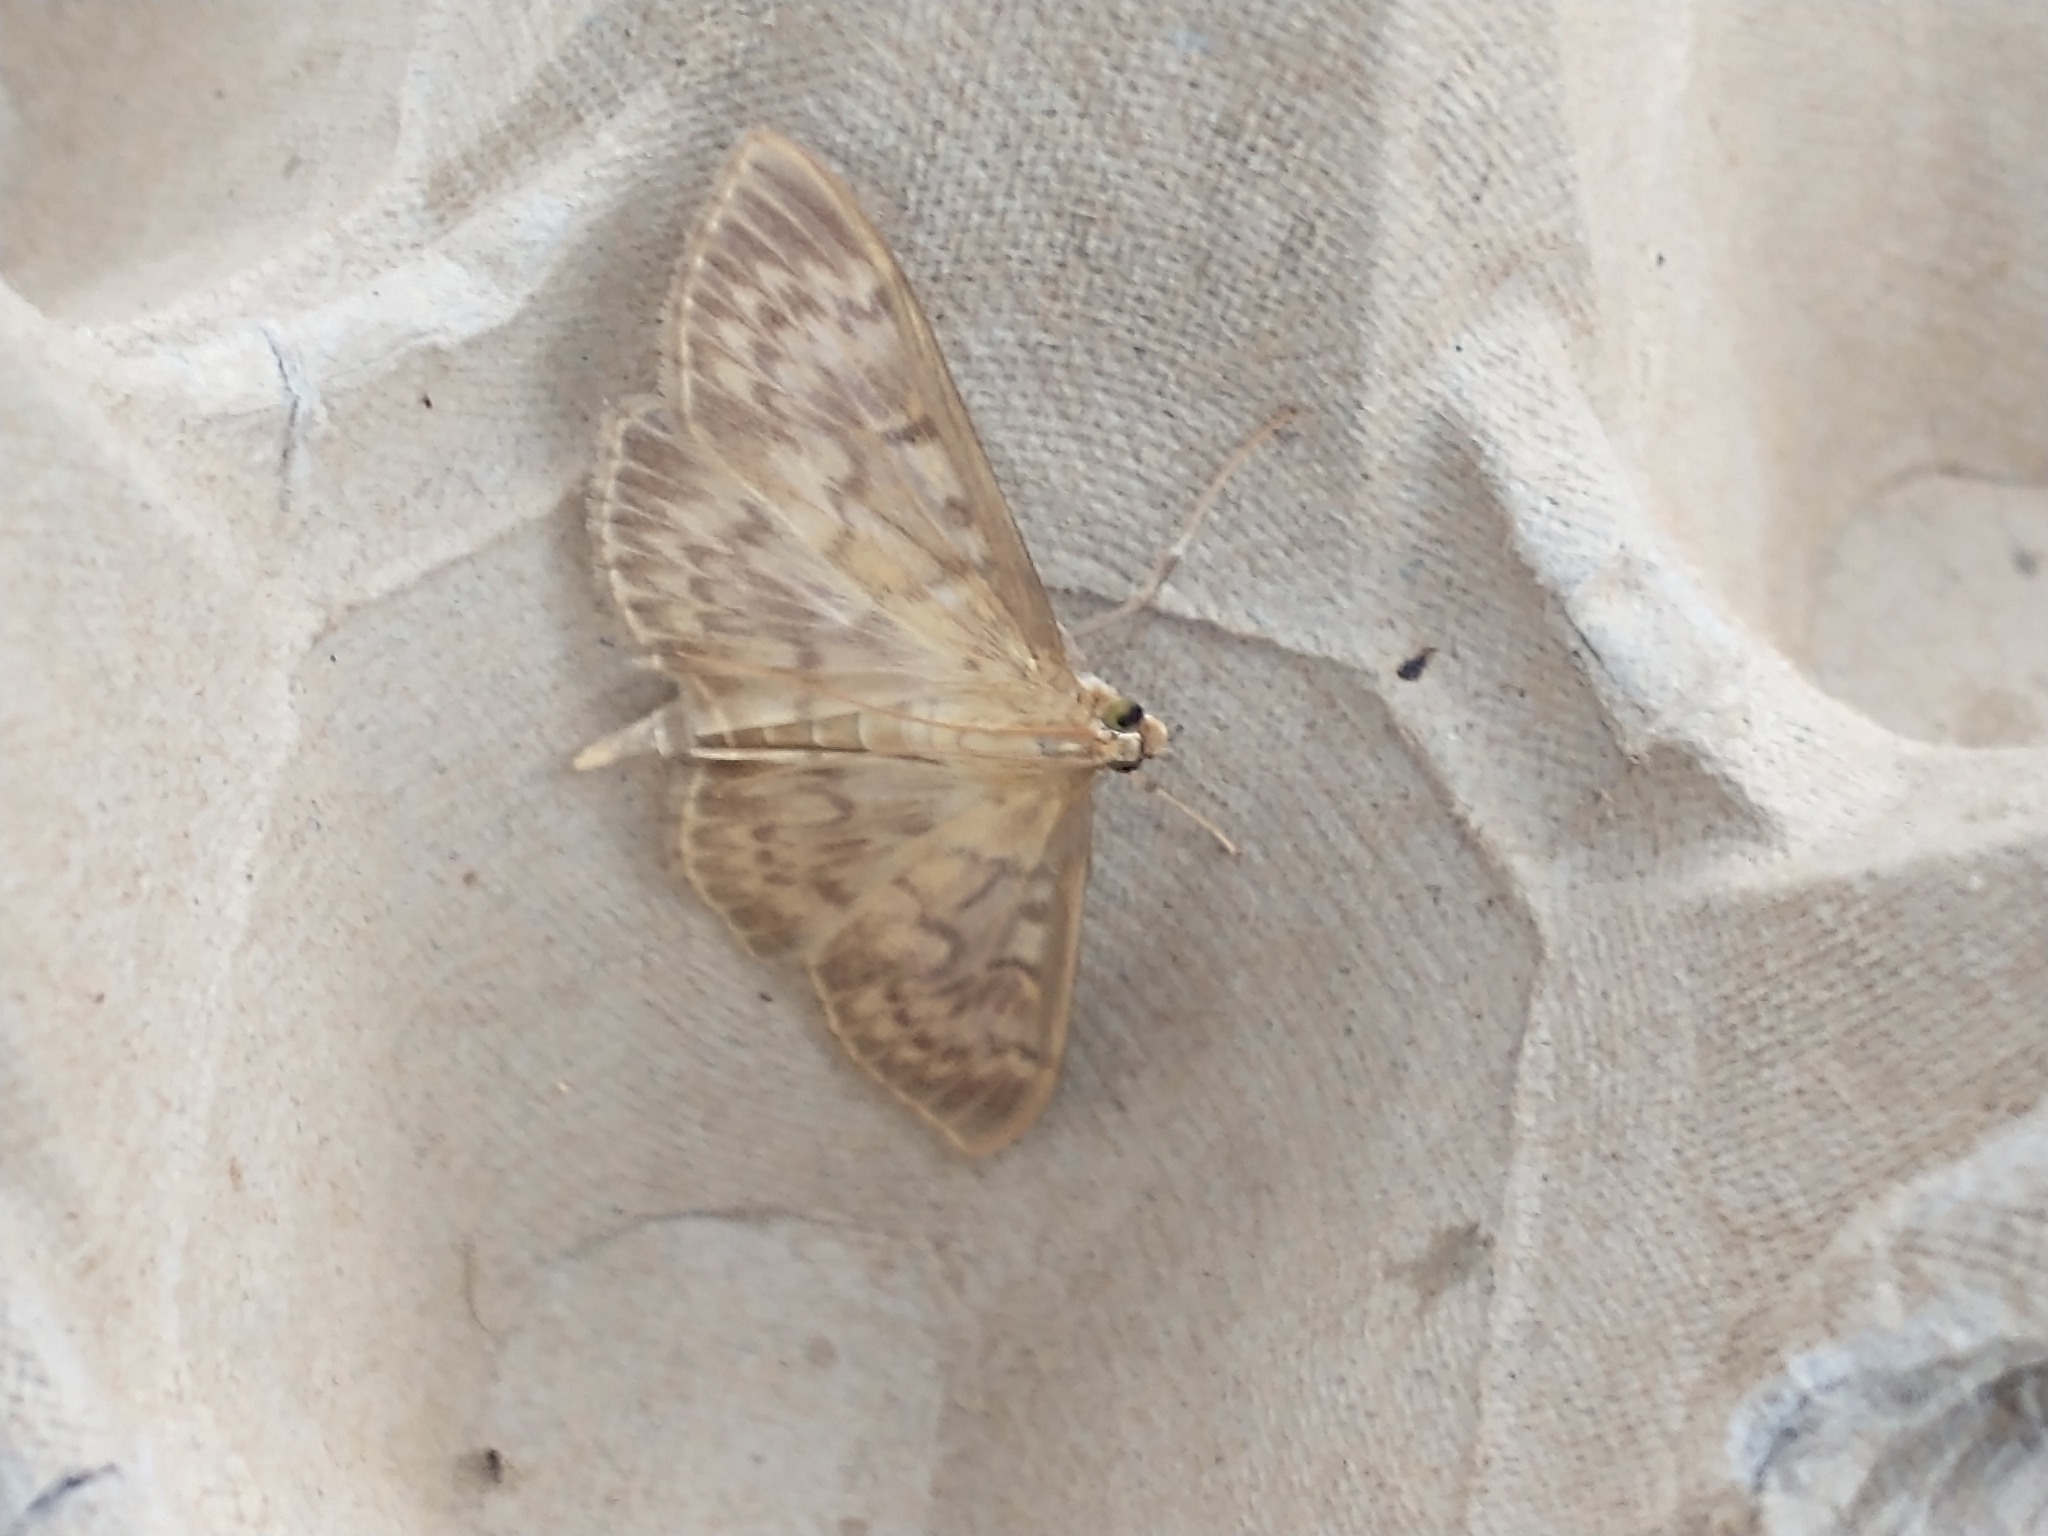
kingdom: Animalia
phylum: Arthropoda
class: Insecta
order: Lepidoptera
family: Crambidae
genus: Patania
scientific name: Patania ruralis
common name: Mother of pearl
